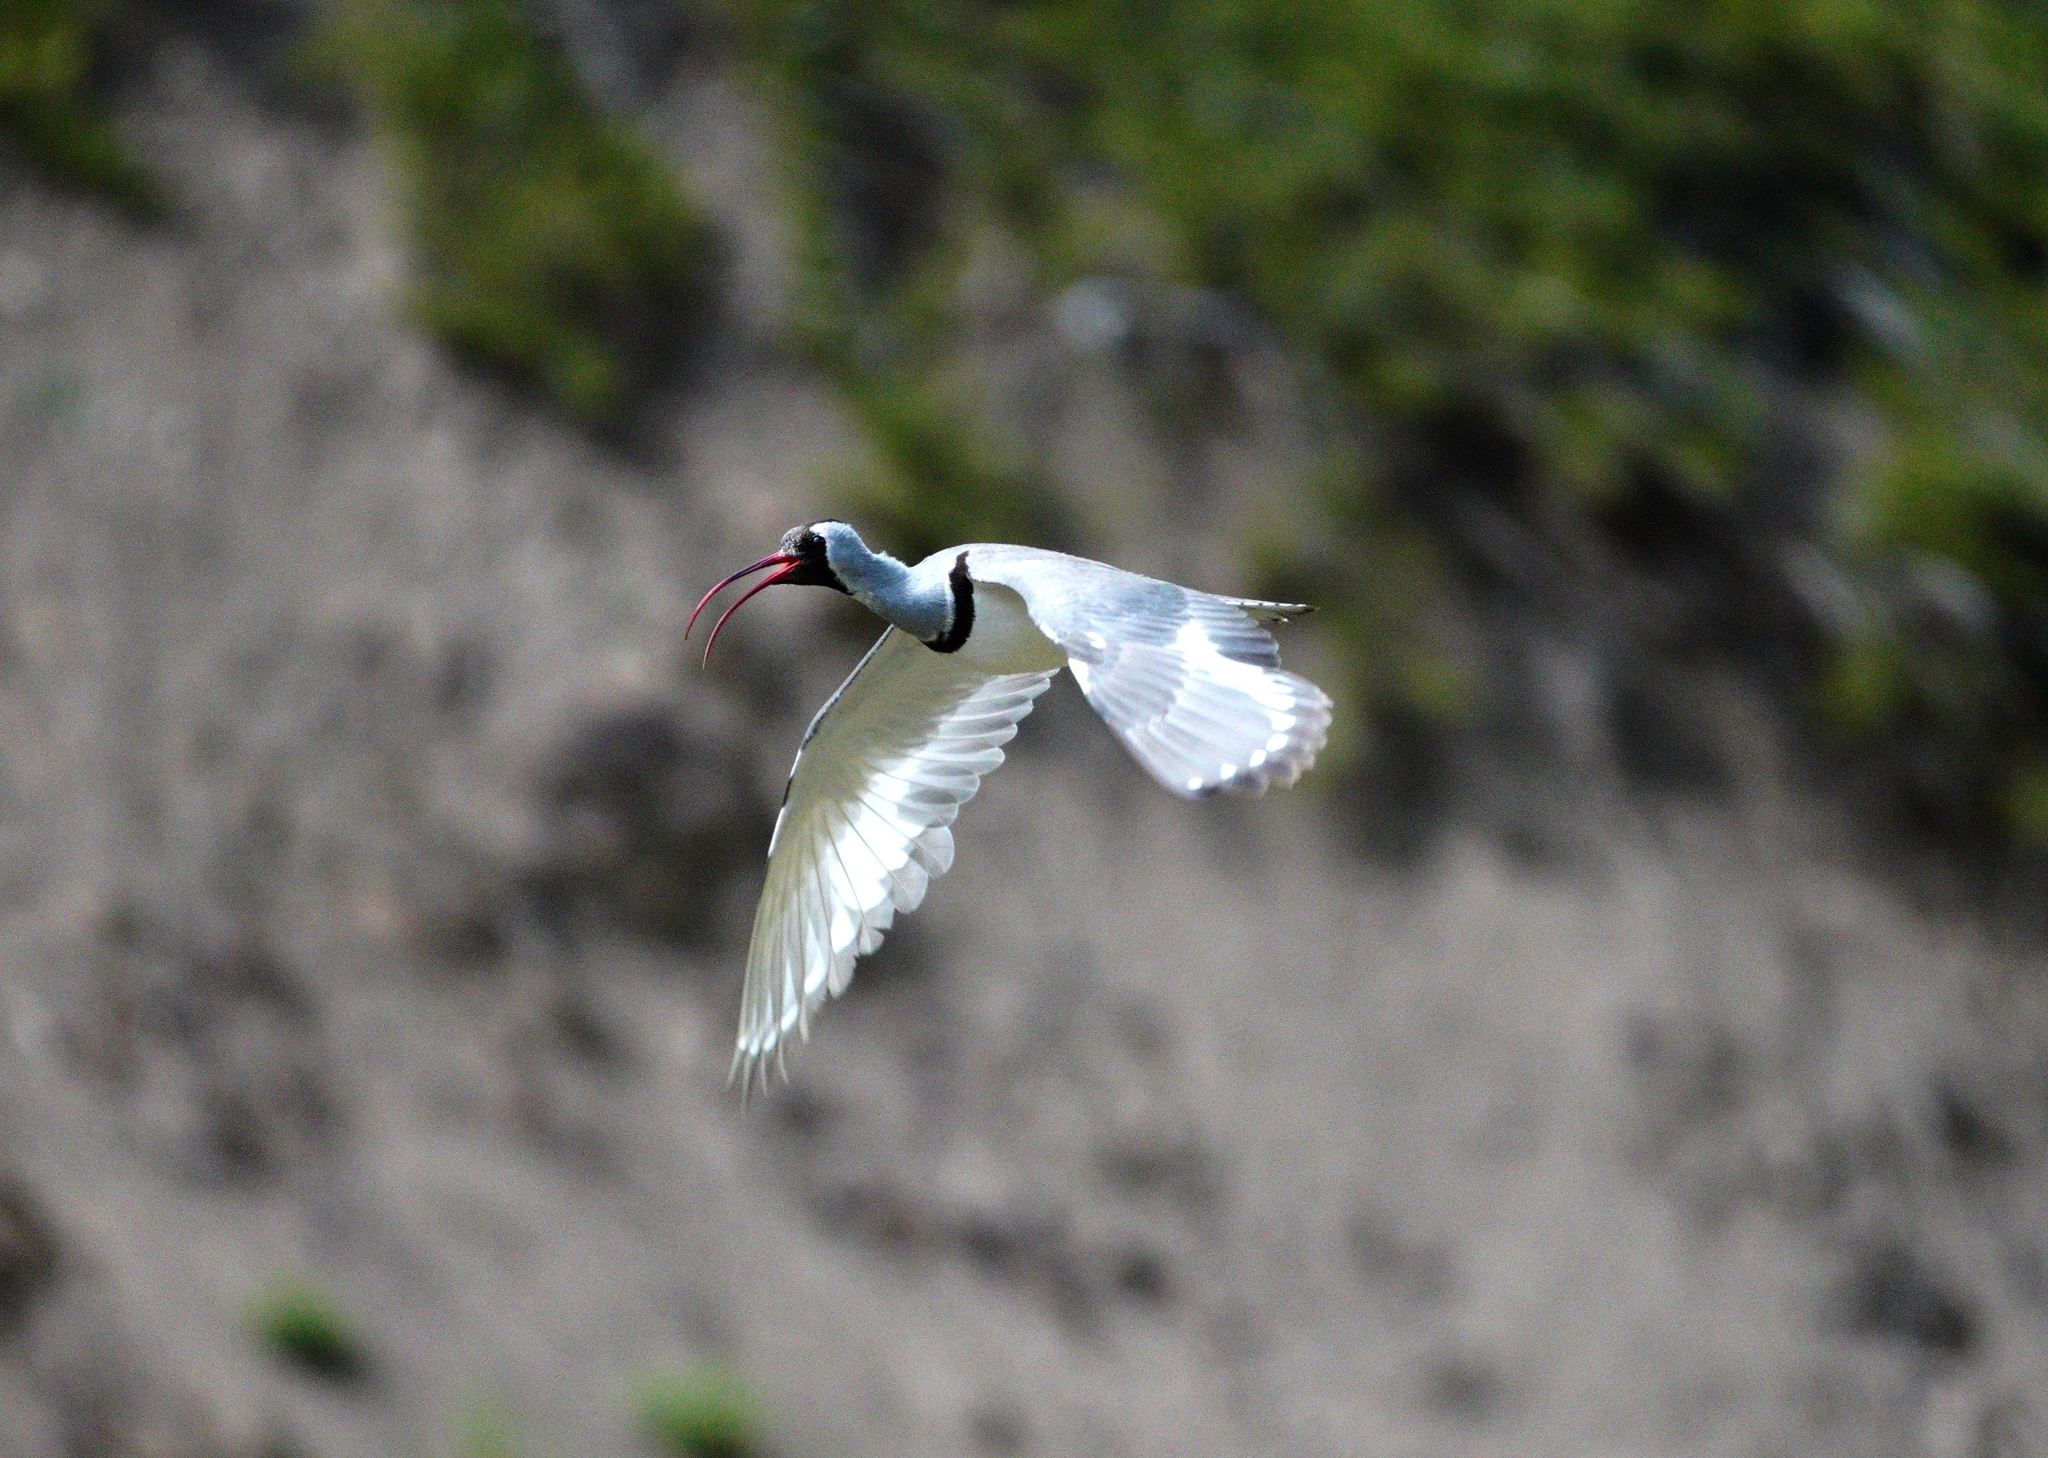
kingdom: Animalia
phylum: Chordata
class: Aves
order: Charadriiformes
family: Ibidorhynchidae
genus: Ibidorhyncha
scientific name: Ibidorhyncha struthersii
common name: Ibisbill
